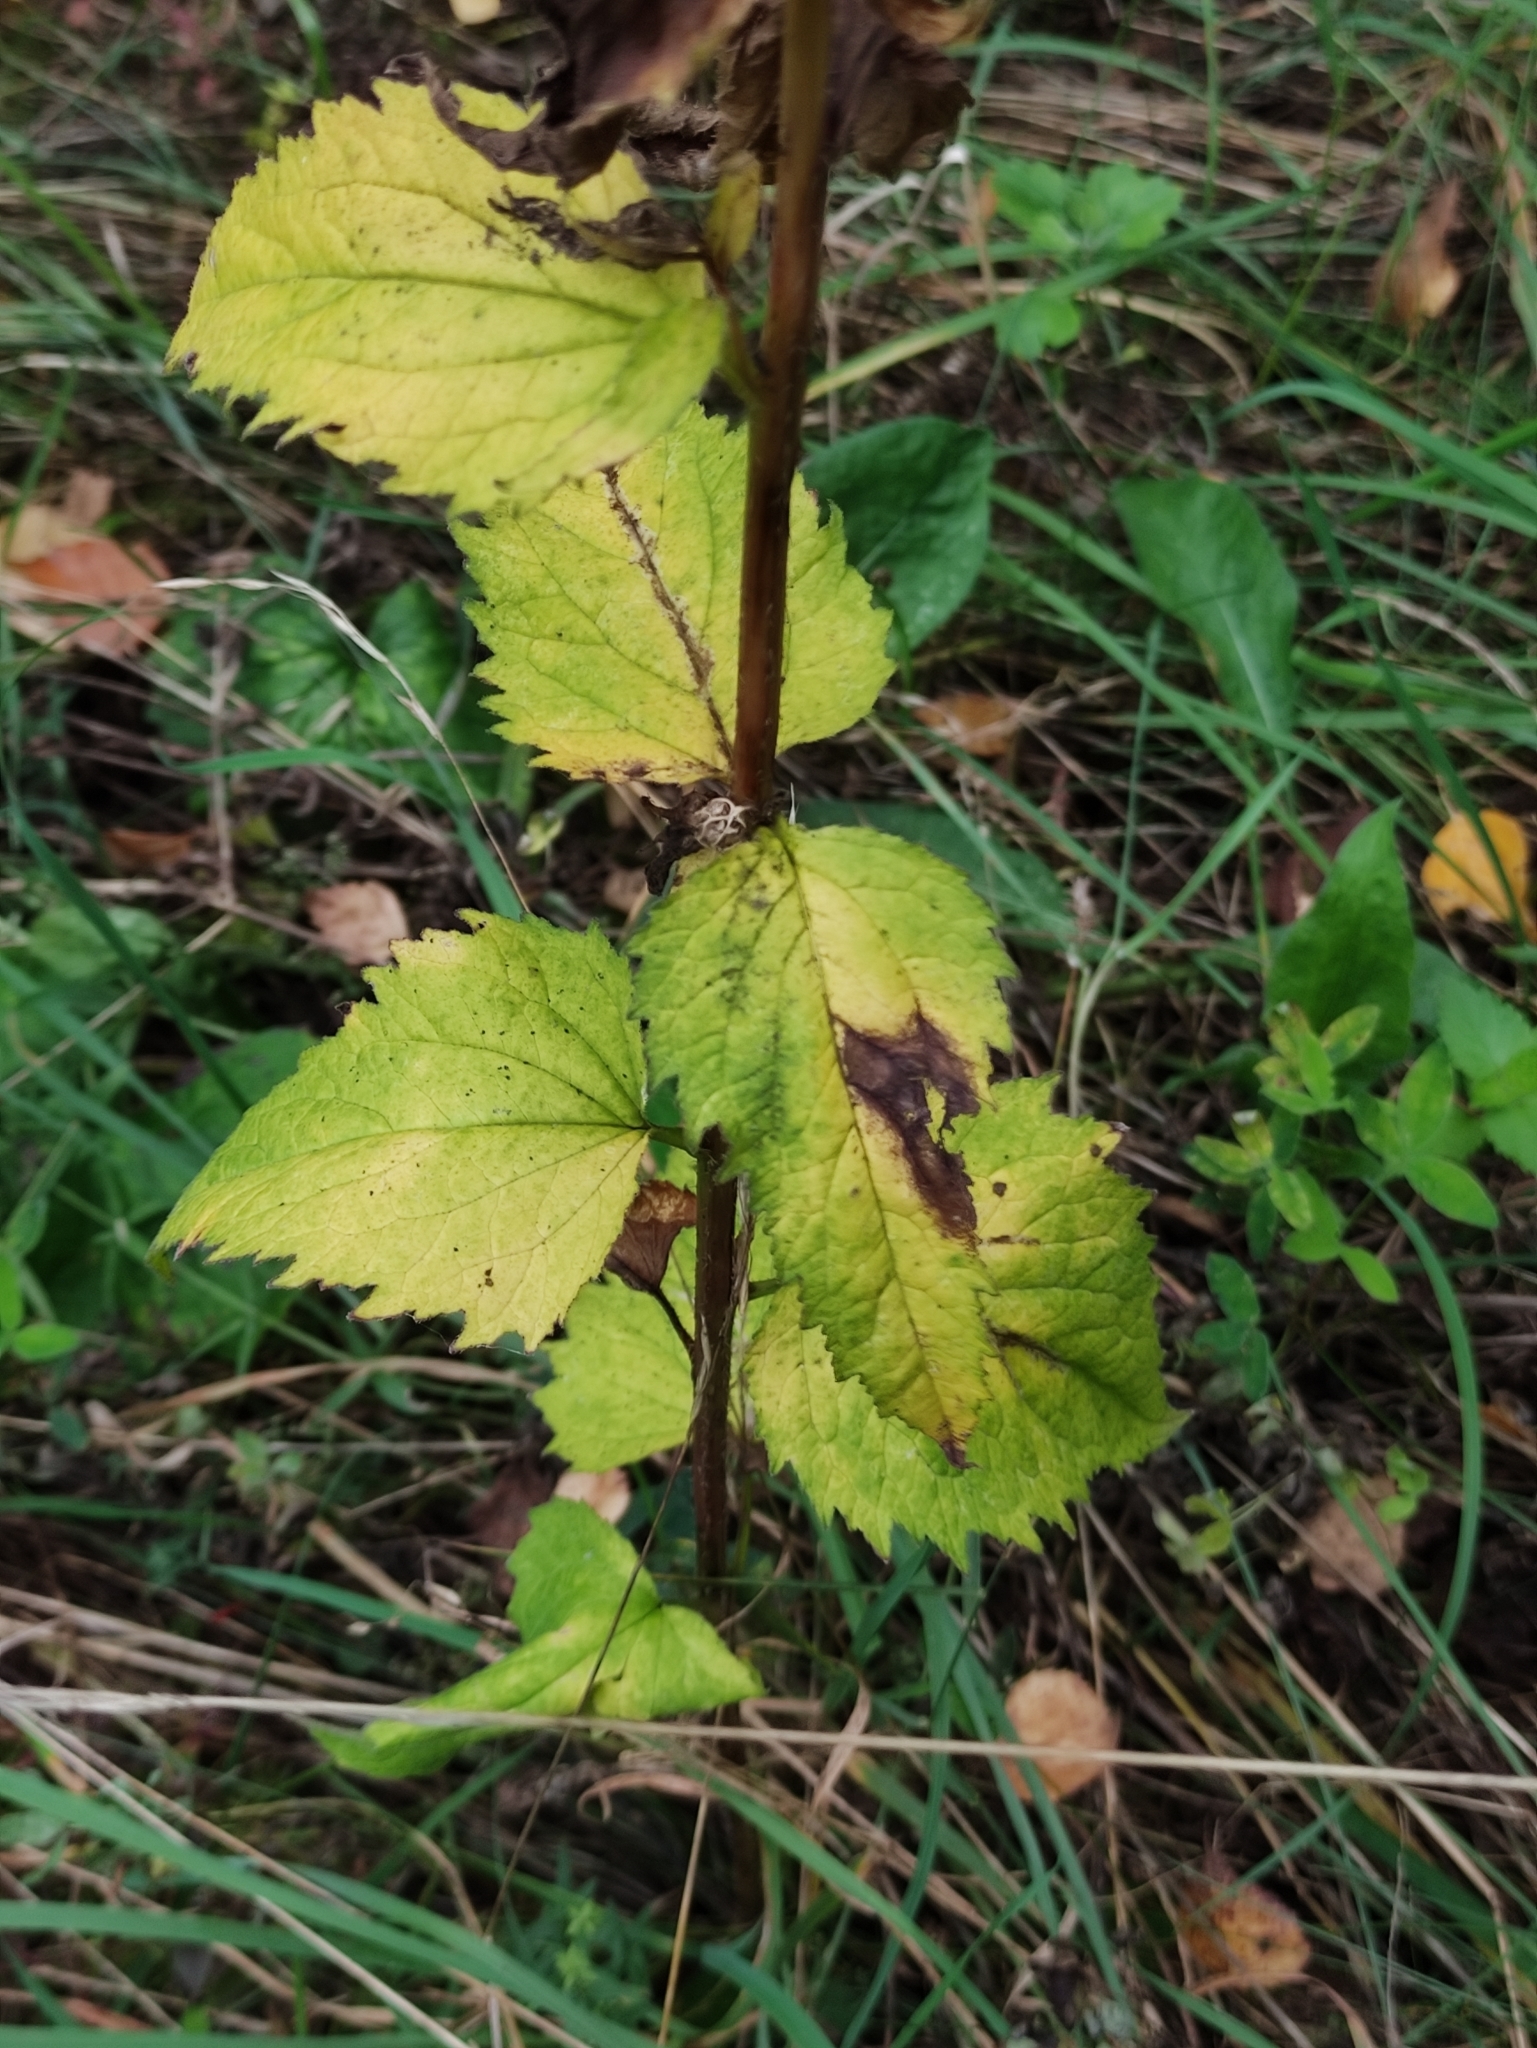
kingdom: Plantae
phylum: Tracheophyta
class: Magnoliopsida
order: Asterales
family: Campanulaceae
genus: Campanula
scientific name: Campanula trachelium
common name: Nettle-leaved bellflower
